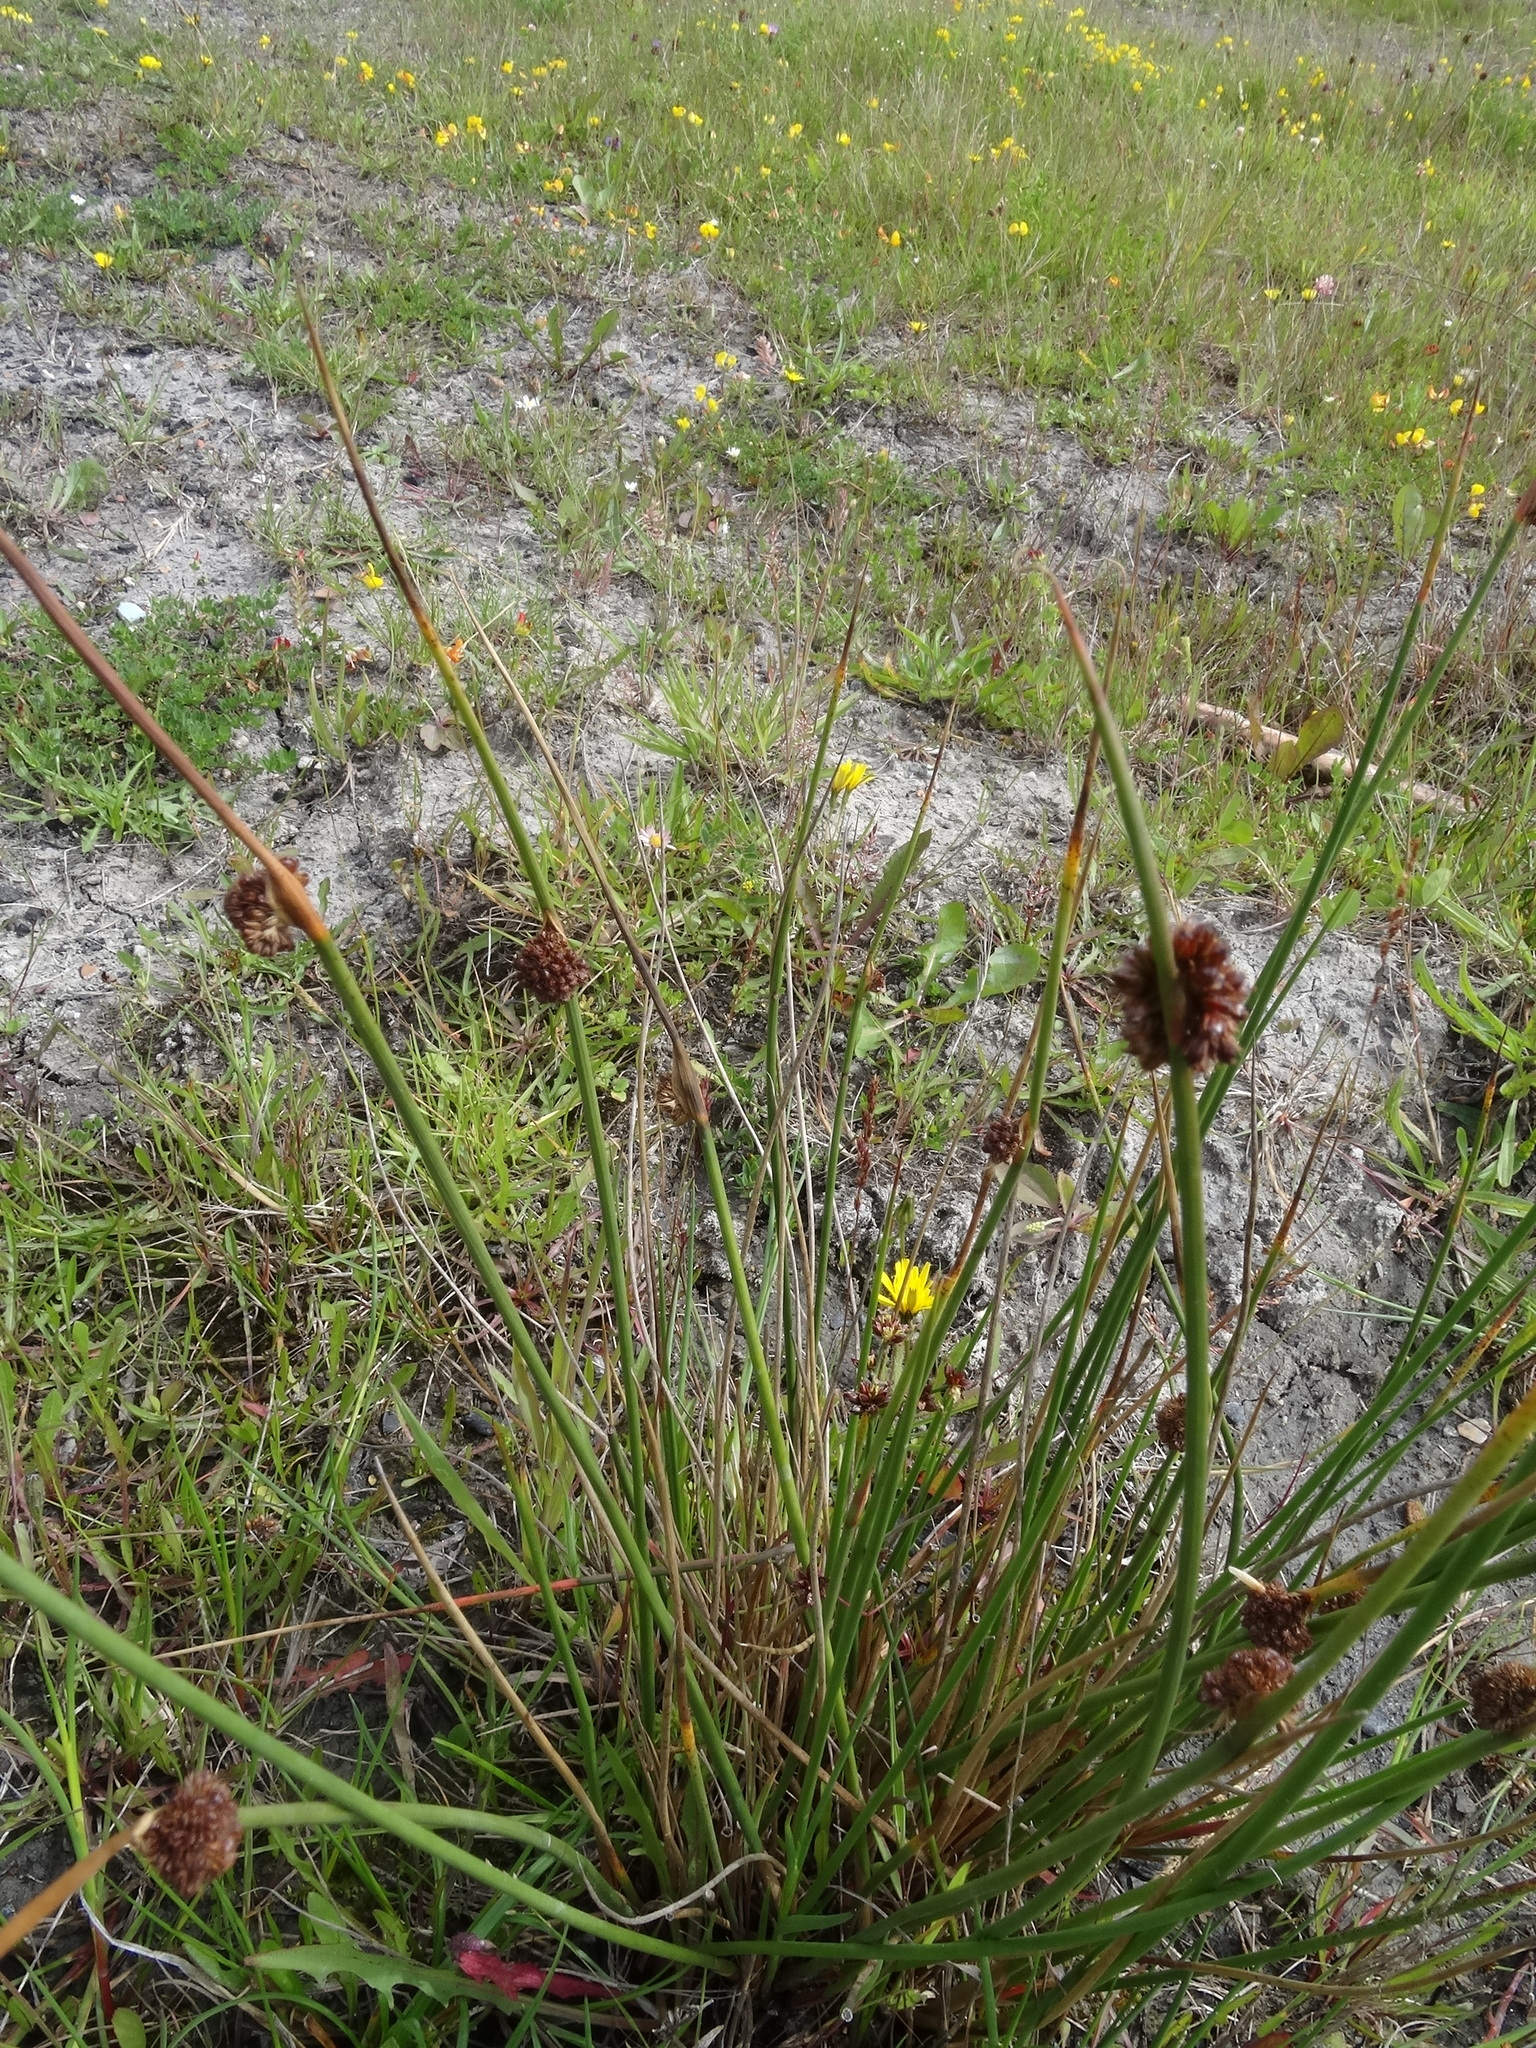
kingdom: Plantae
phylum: Tracheophyta
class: Liliopsida
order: Poales
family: Juncaceae
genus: Juncus
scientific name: Juncus effusus
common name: Soft rush
